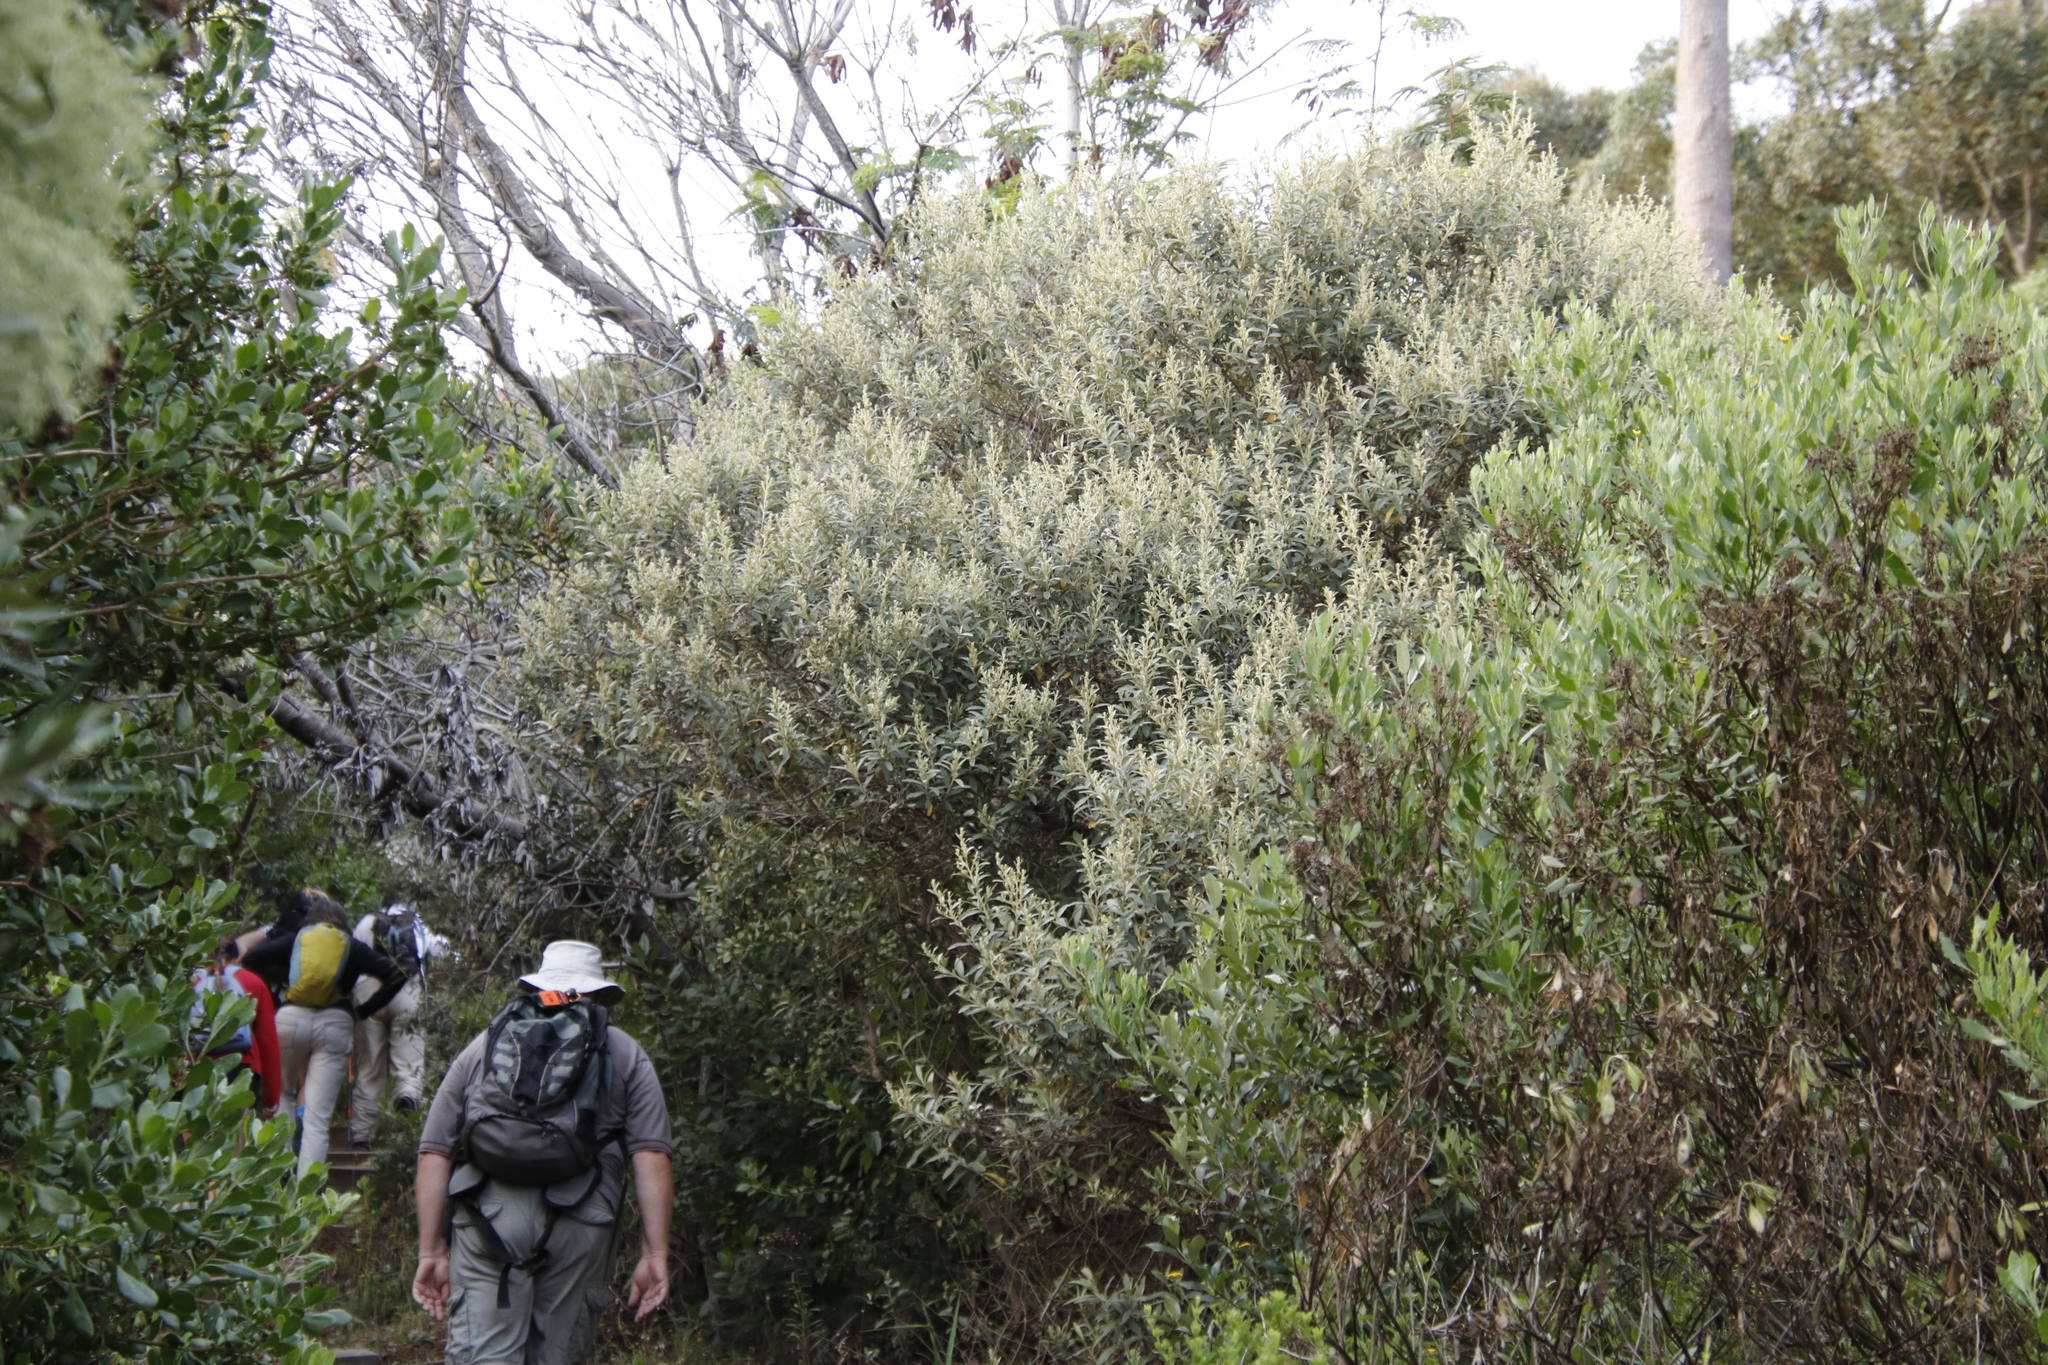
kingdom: Plantae
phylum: Tracheophyta
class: Magnoliopsida
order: Asterales
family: Asteraceae
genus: Tarchonanthus
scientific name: Tarchonanthus littoralis
